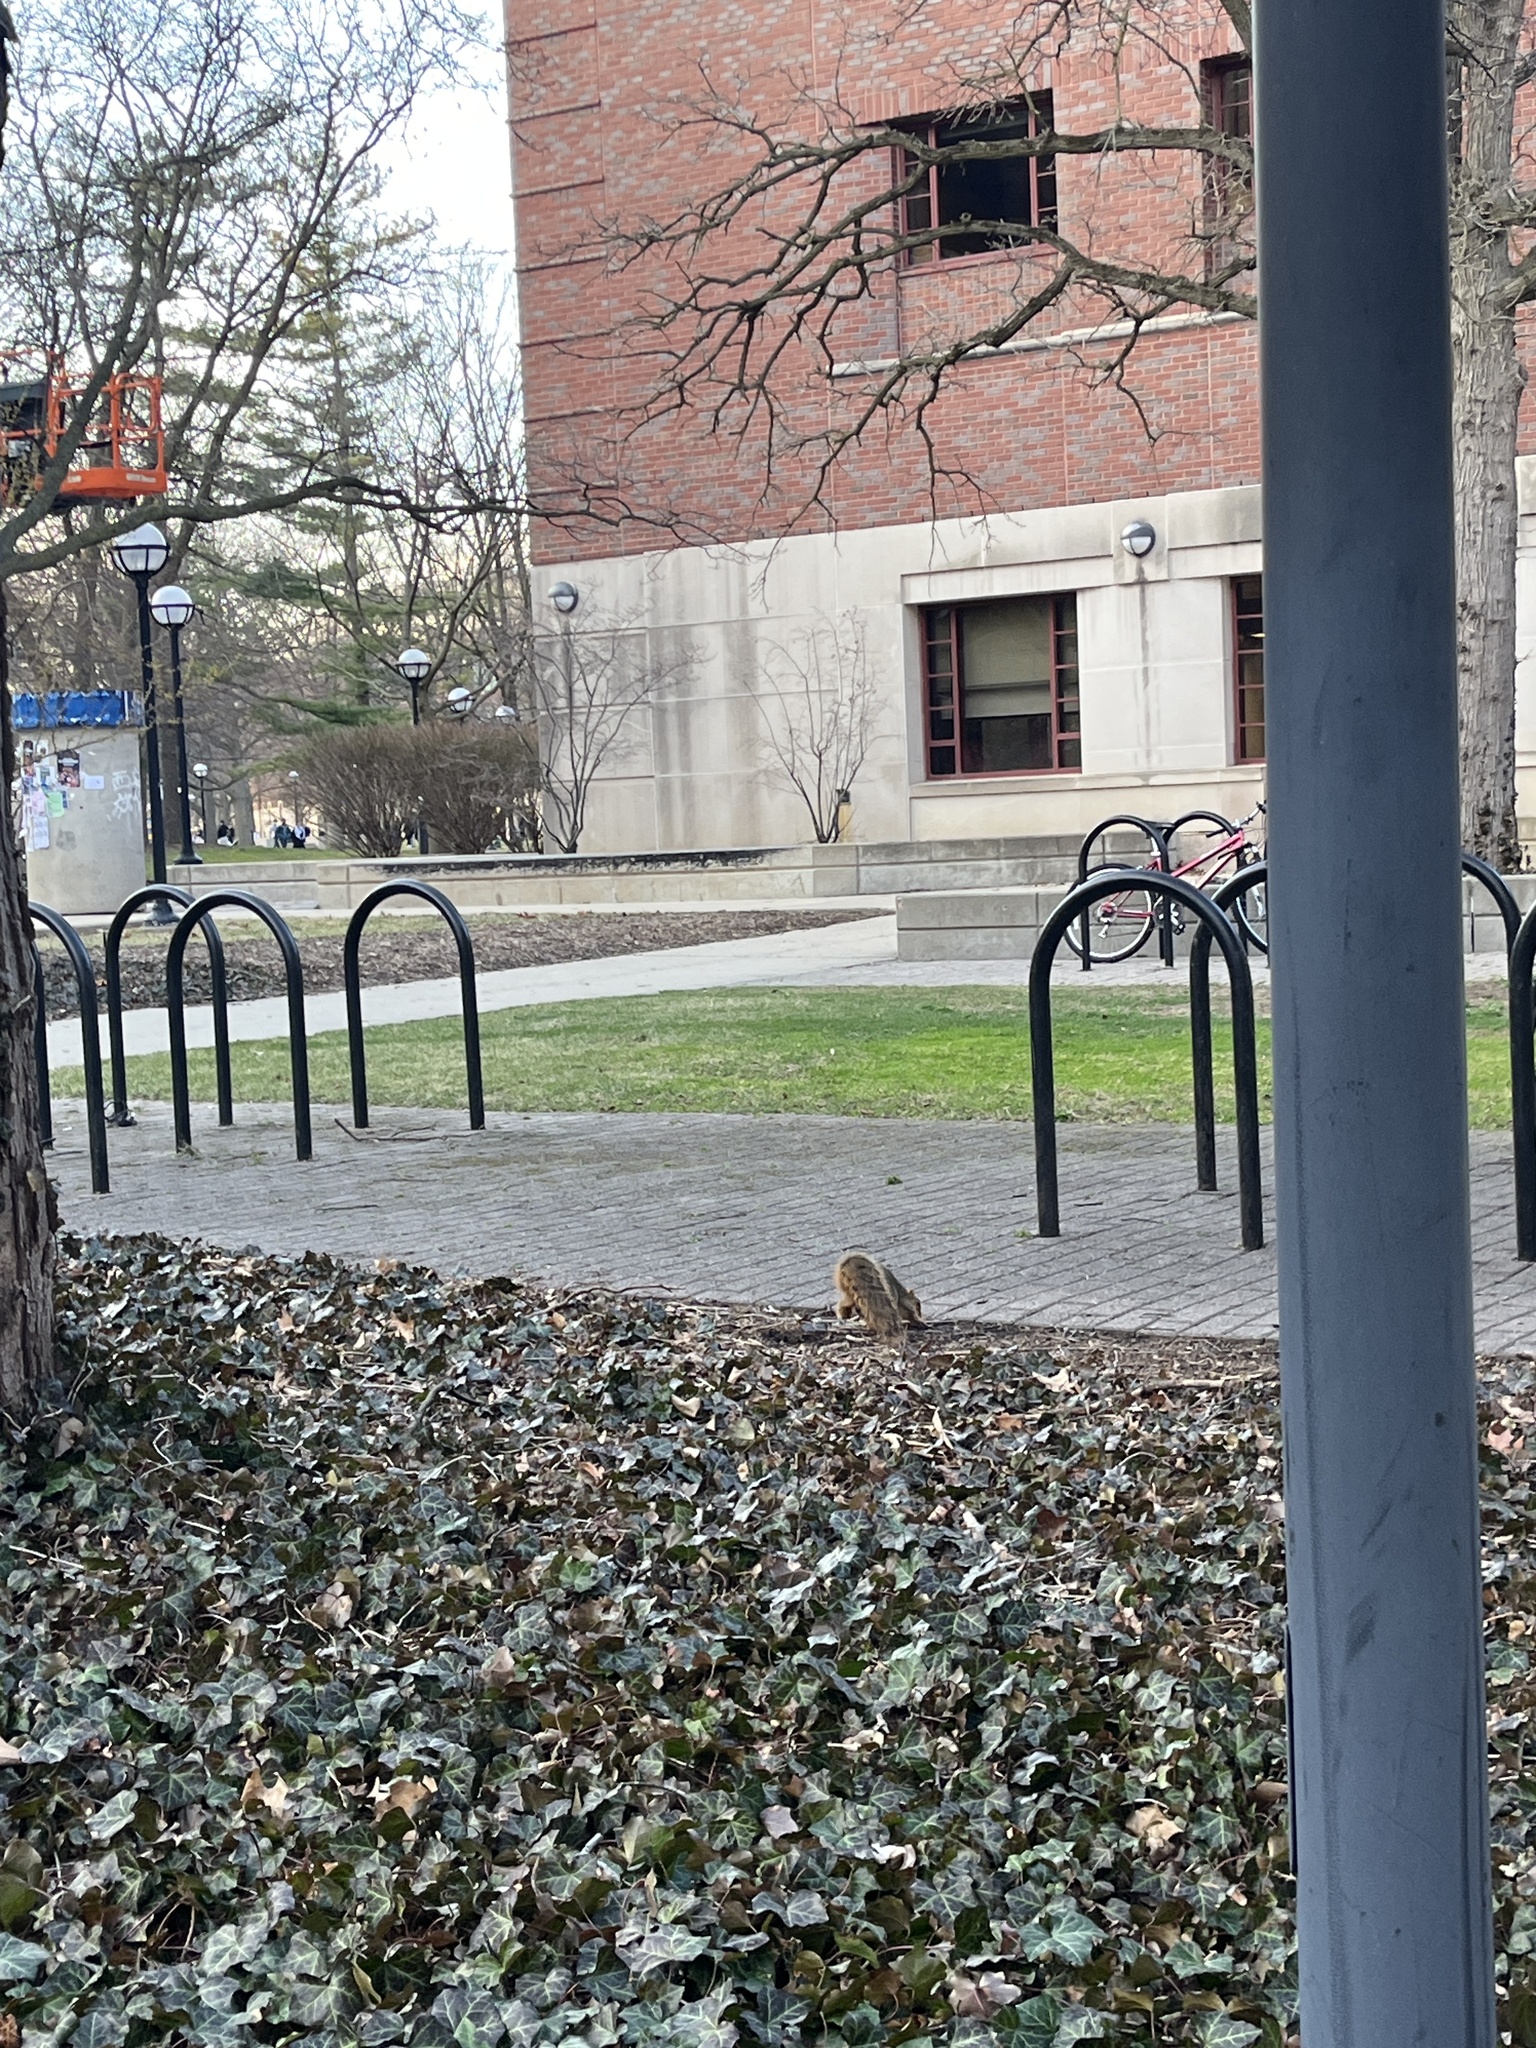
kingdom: Animalia
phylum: Chordata
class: Mammalia
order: Rodentia
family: Sciuridae
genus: Sciurus
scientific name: Sciurus niger
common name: Fox squirrel
